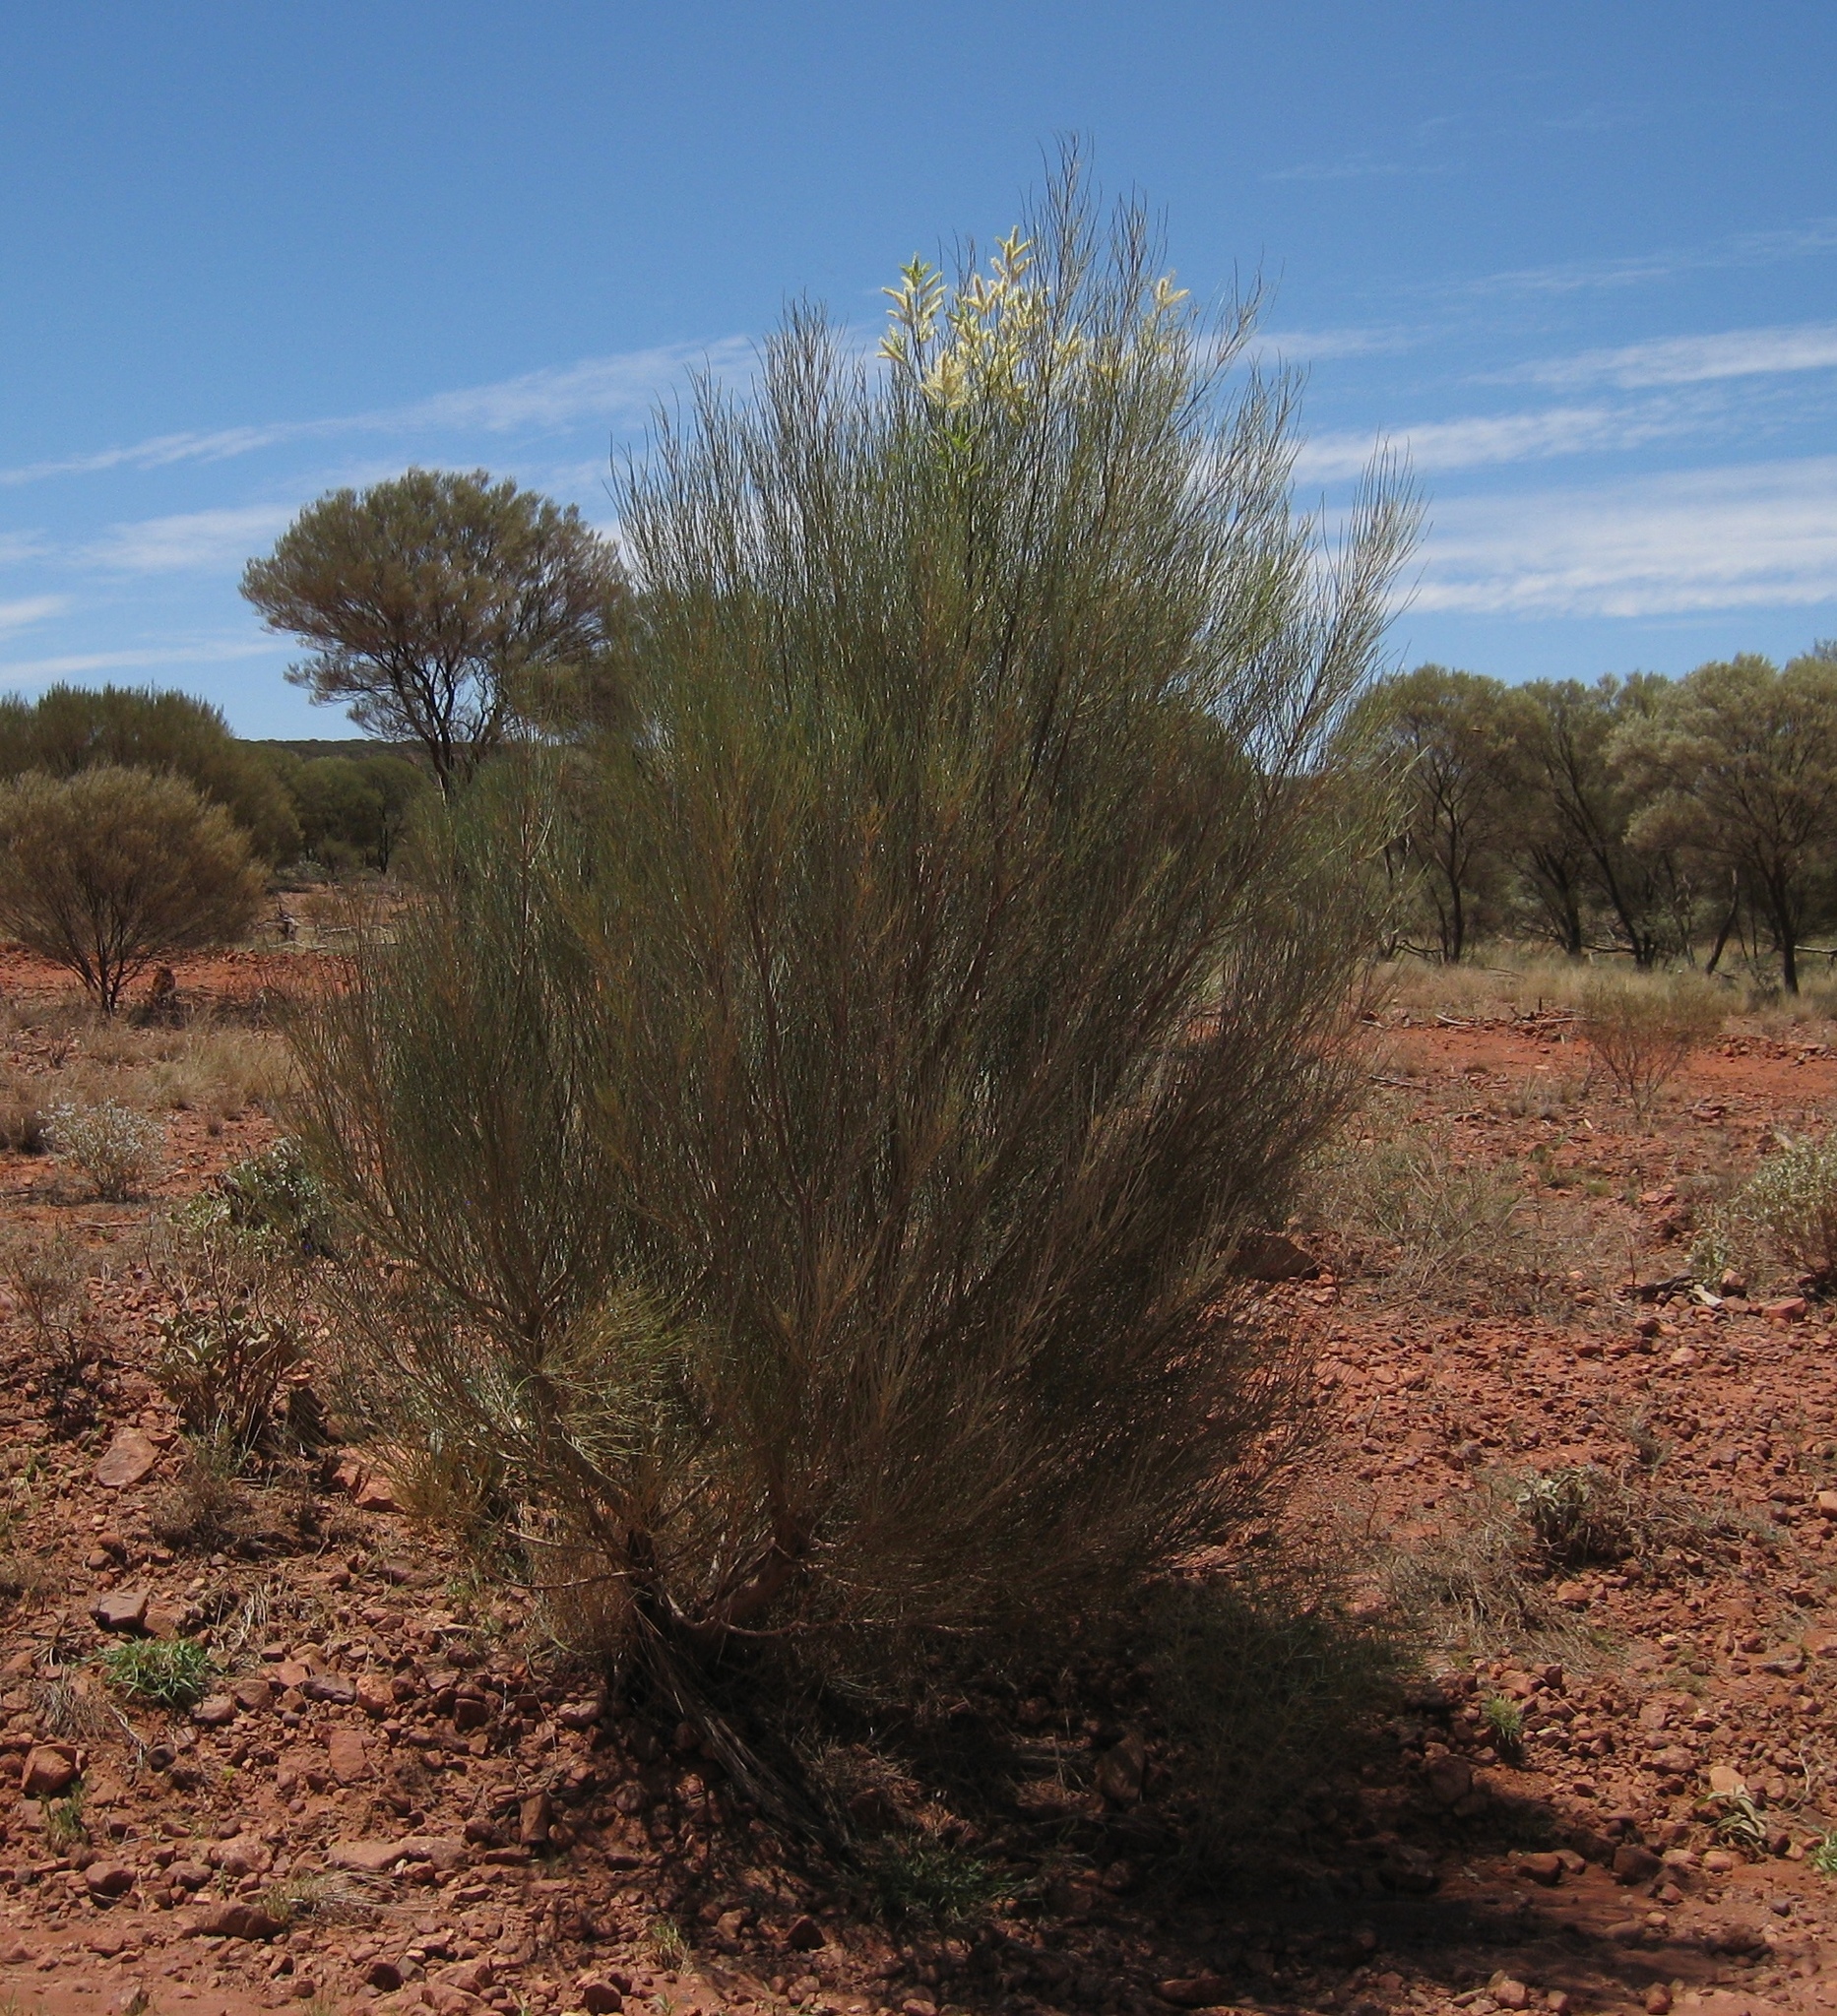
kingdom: Plantae
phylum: Tracheophyta
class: Magnoliopsida
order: Proteales
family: Proteaceae
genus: Grevillea
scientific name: Grevillea nematophylla
